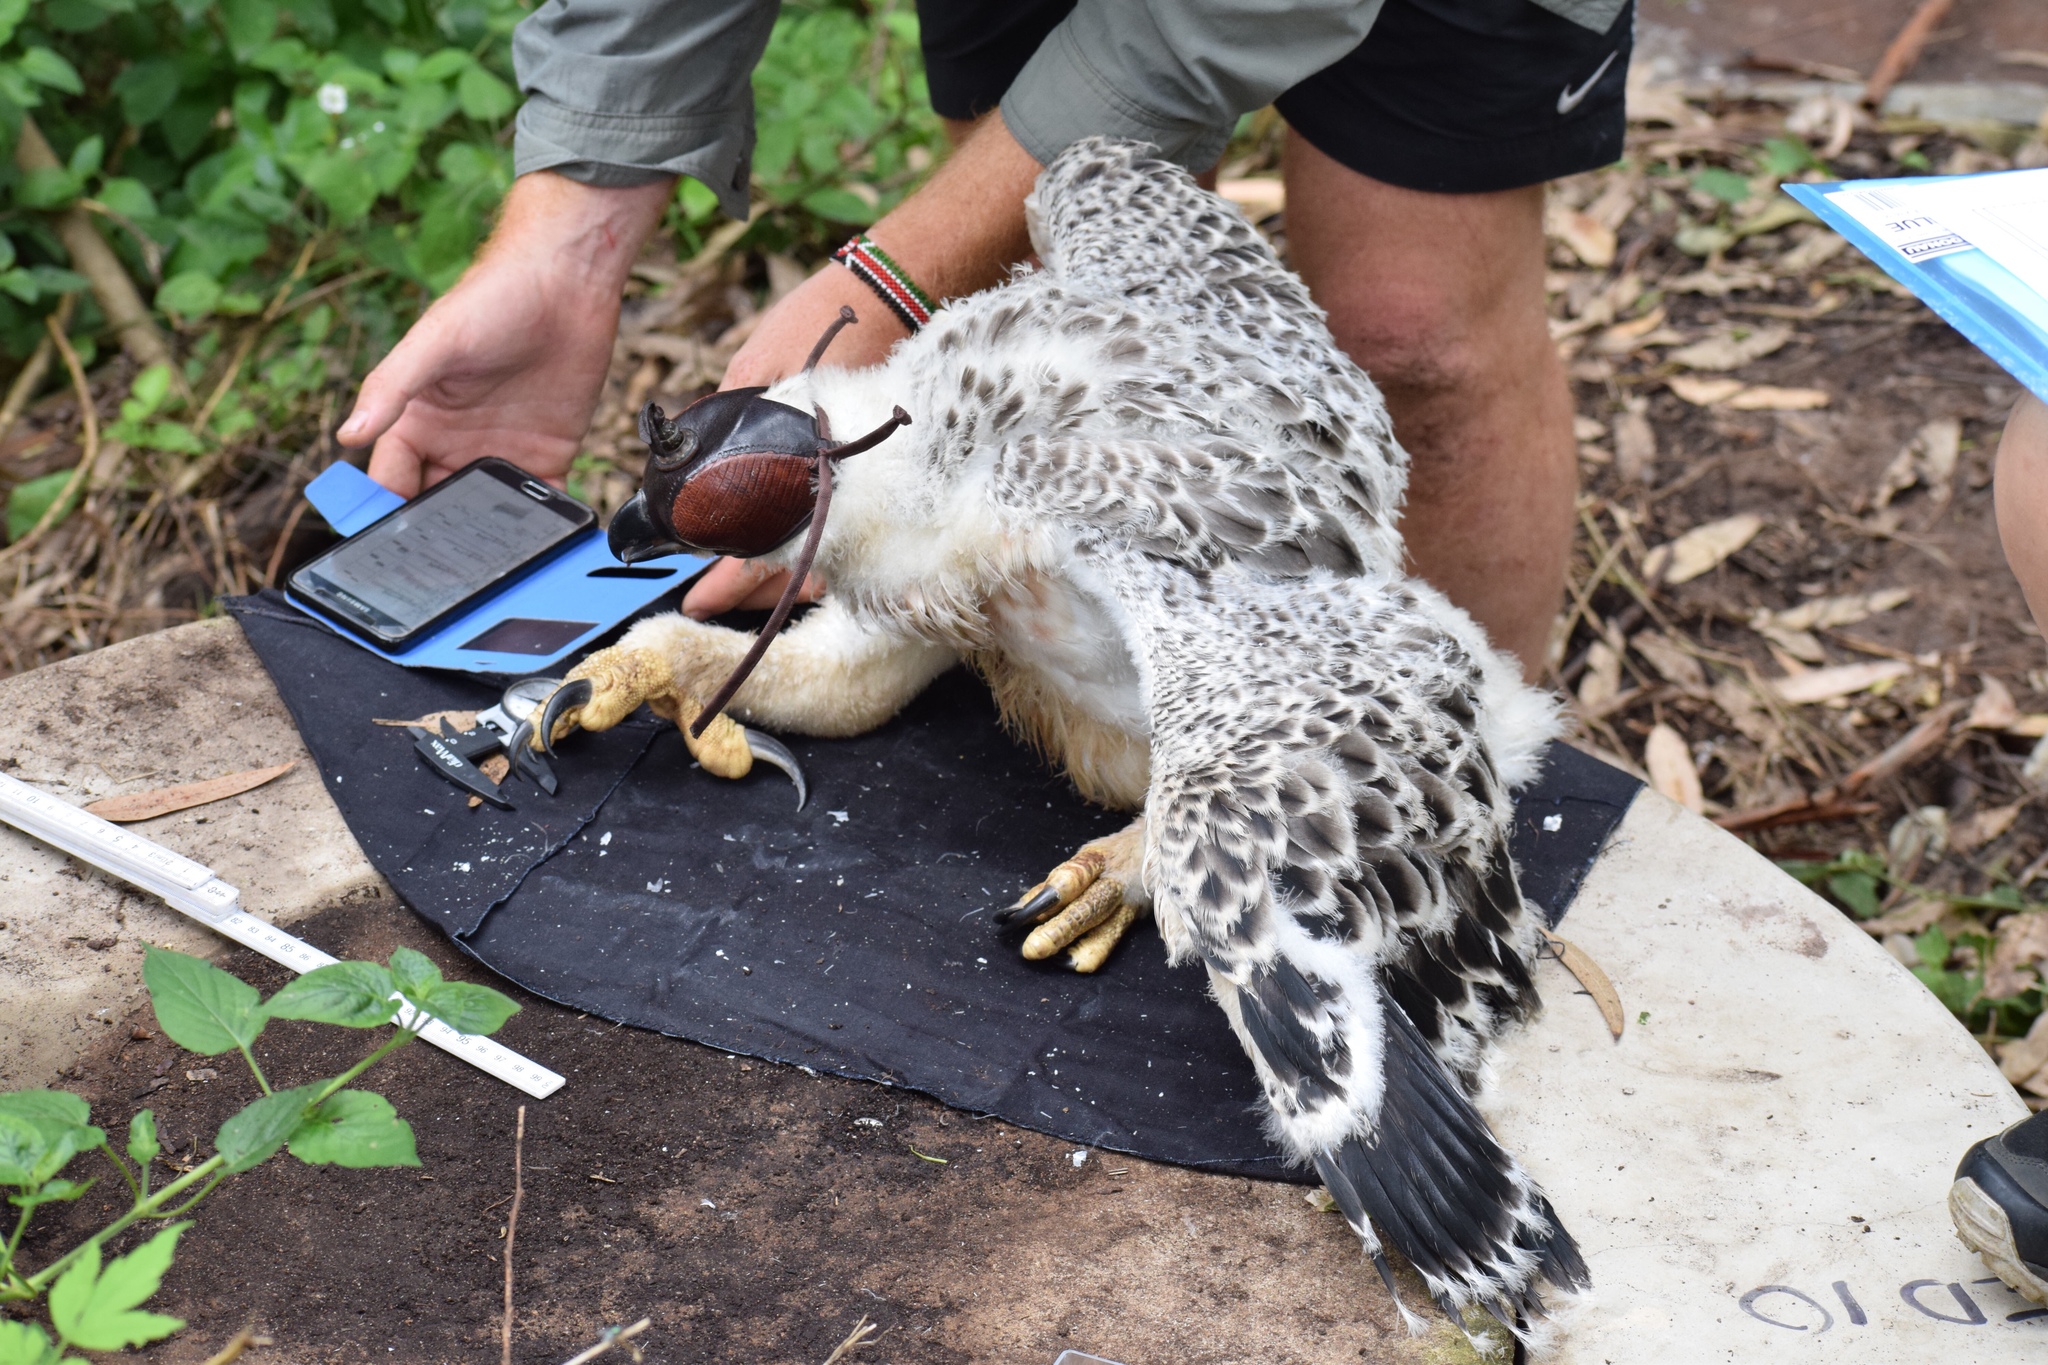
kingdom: Animalia
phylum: Chordata
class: Aves
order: Accipitriformes
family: Accipitridae
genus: Stephanoaetus
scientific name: Stephanoaetus coronatus
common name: Crowned eagle
